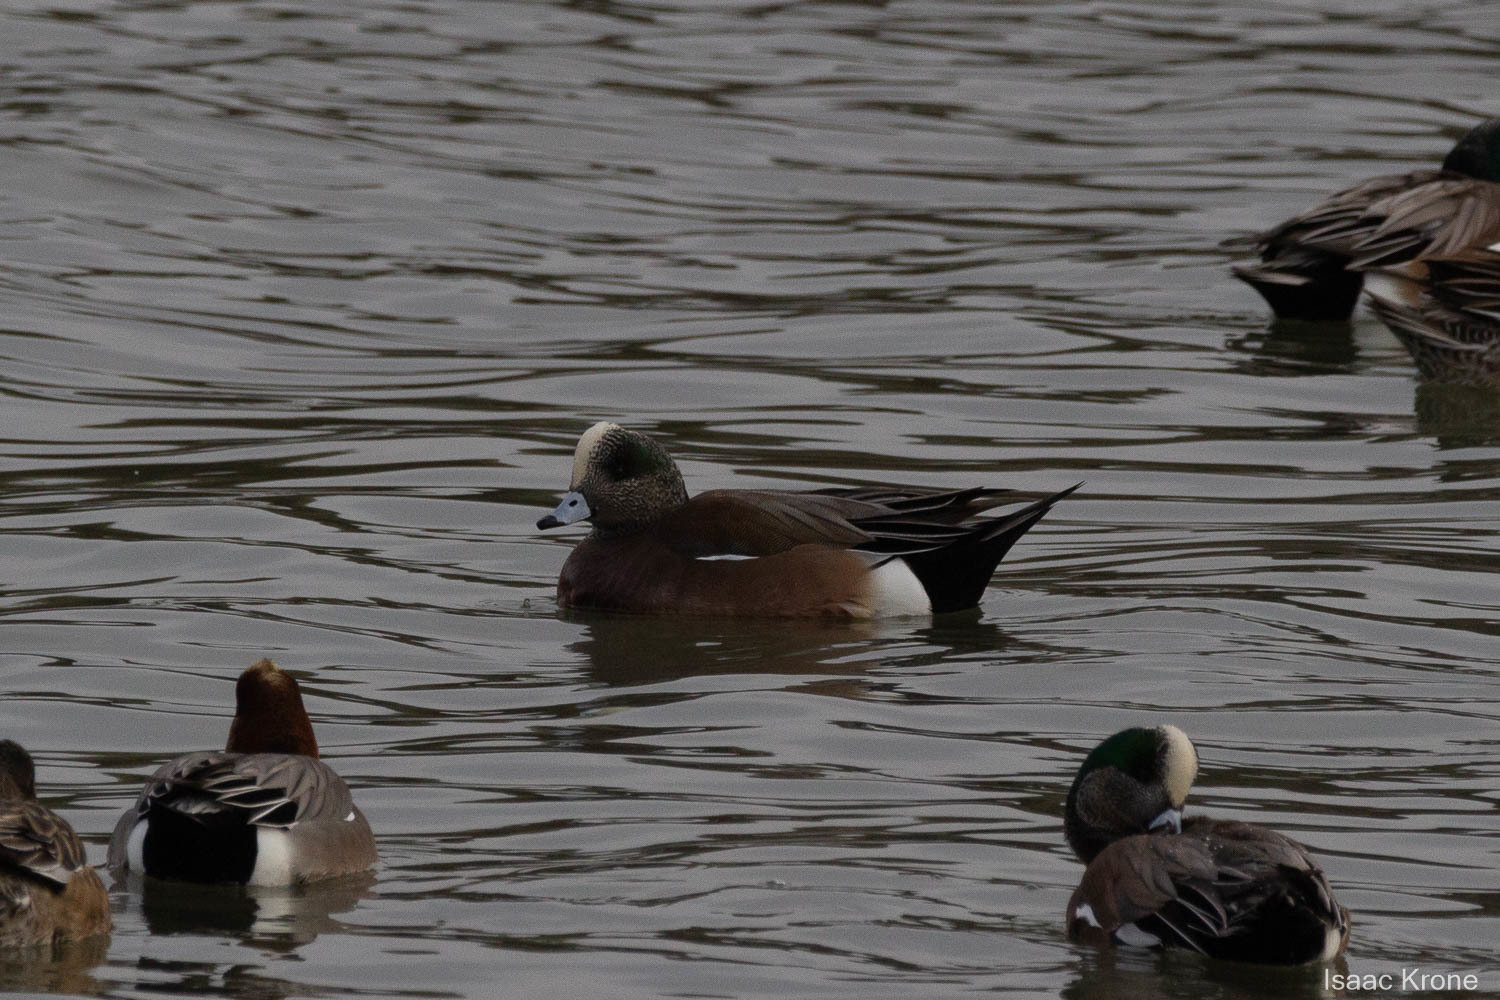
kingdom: Animalia
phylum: Chordata
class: Aves
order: Anseriformes
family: Anatidae
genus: Mareca
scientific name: Mareca americana
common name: American wigeon
